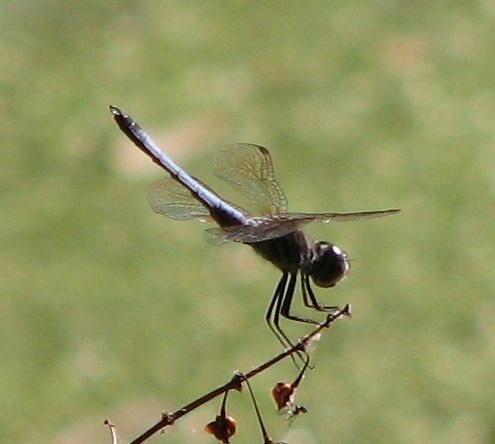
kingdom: Animalia
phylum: Arthropoda
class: Insecta
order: Odonata
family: Libellulidae
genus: Pachydiplax
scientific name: Pachydiplax longipennis
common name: Blue dasher
